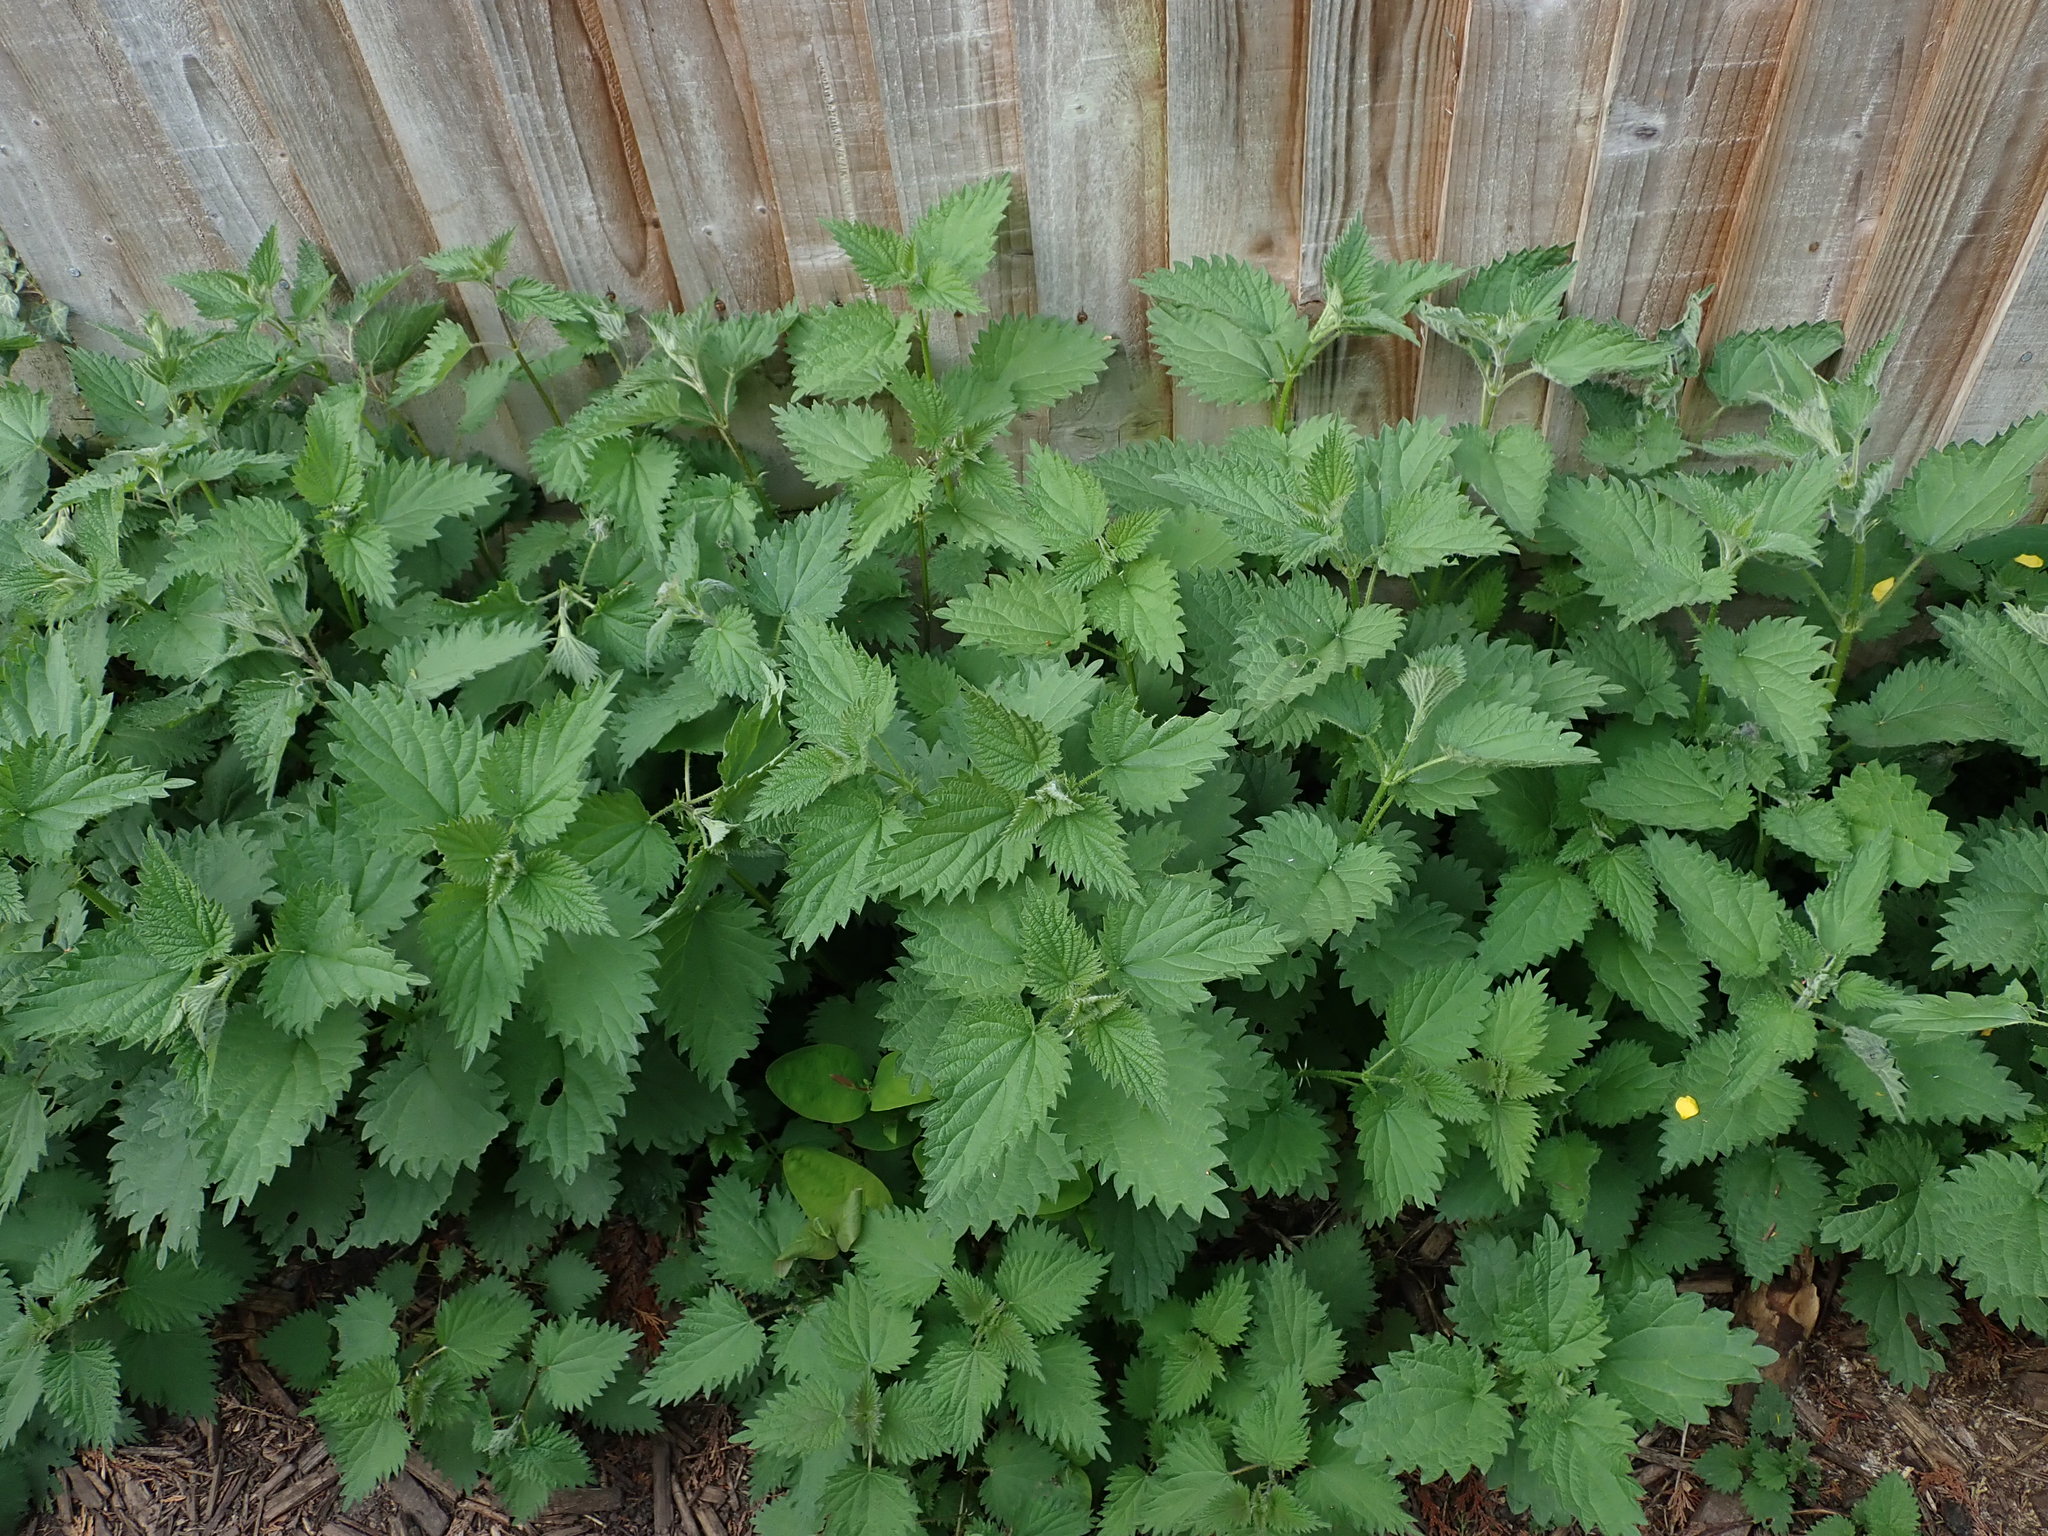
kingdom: Plantae
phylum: Tracheophyta
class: Magnoliopsida
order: Rosales
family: Urticaceae
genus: Urtica
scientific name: Urtica dioica
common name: Common nettle
